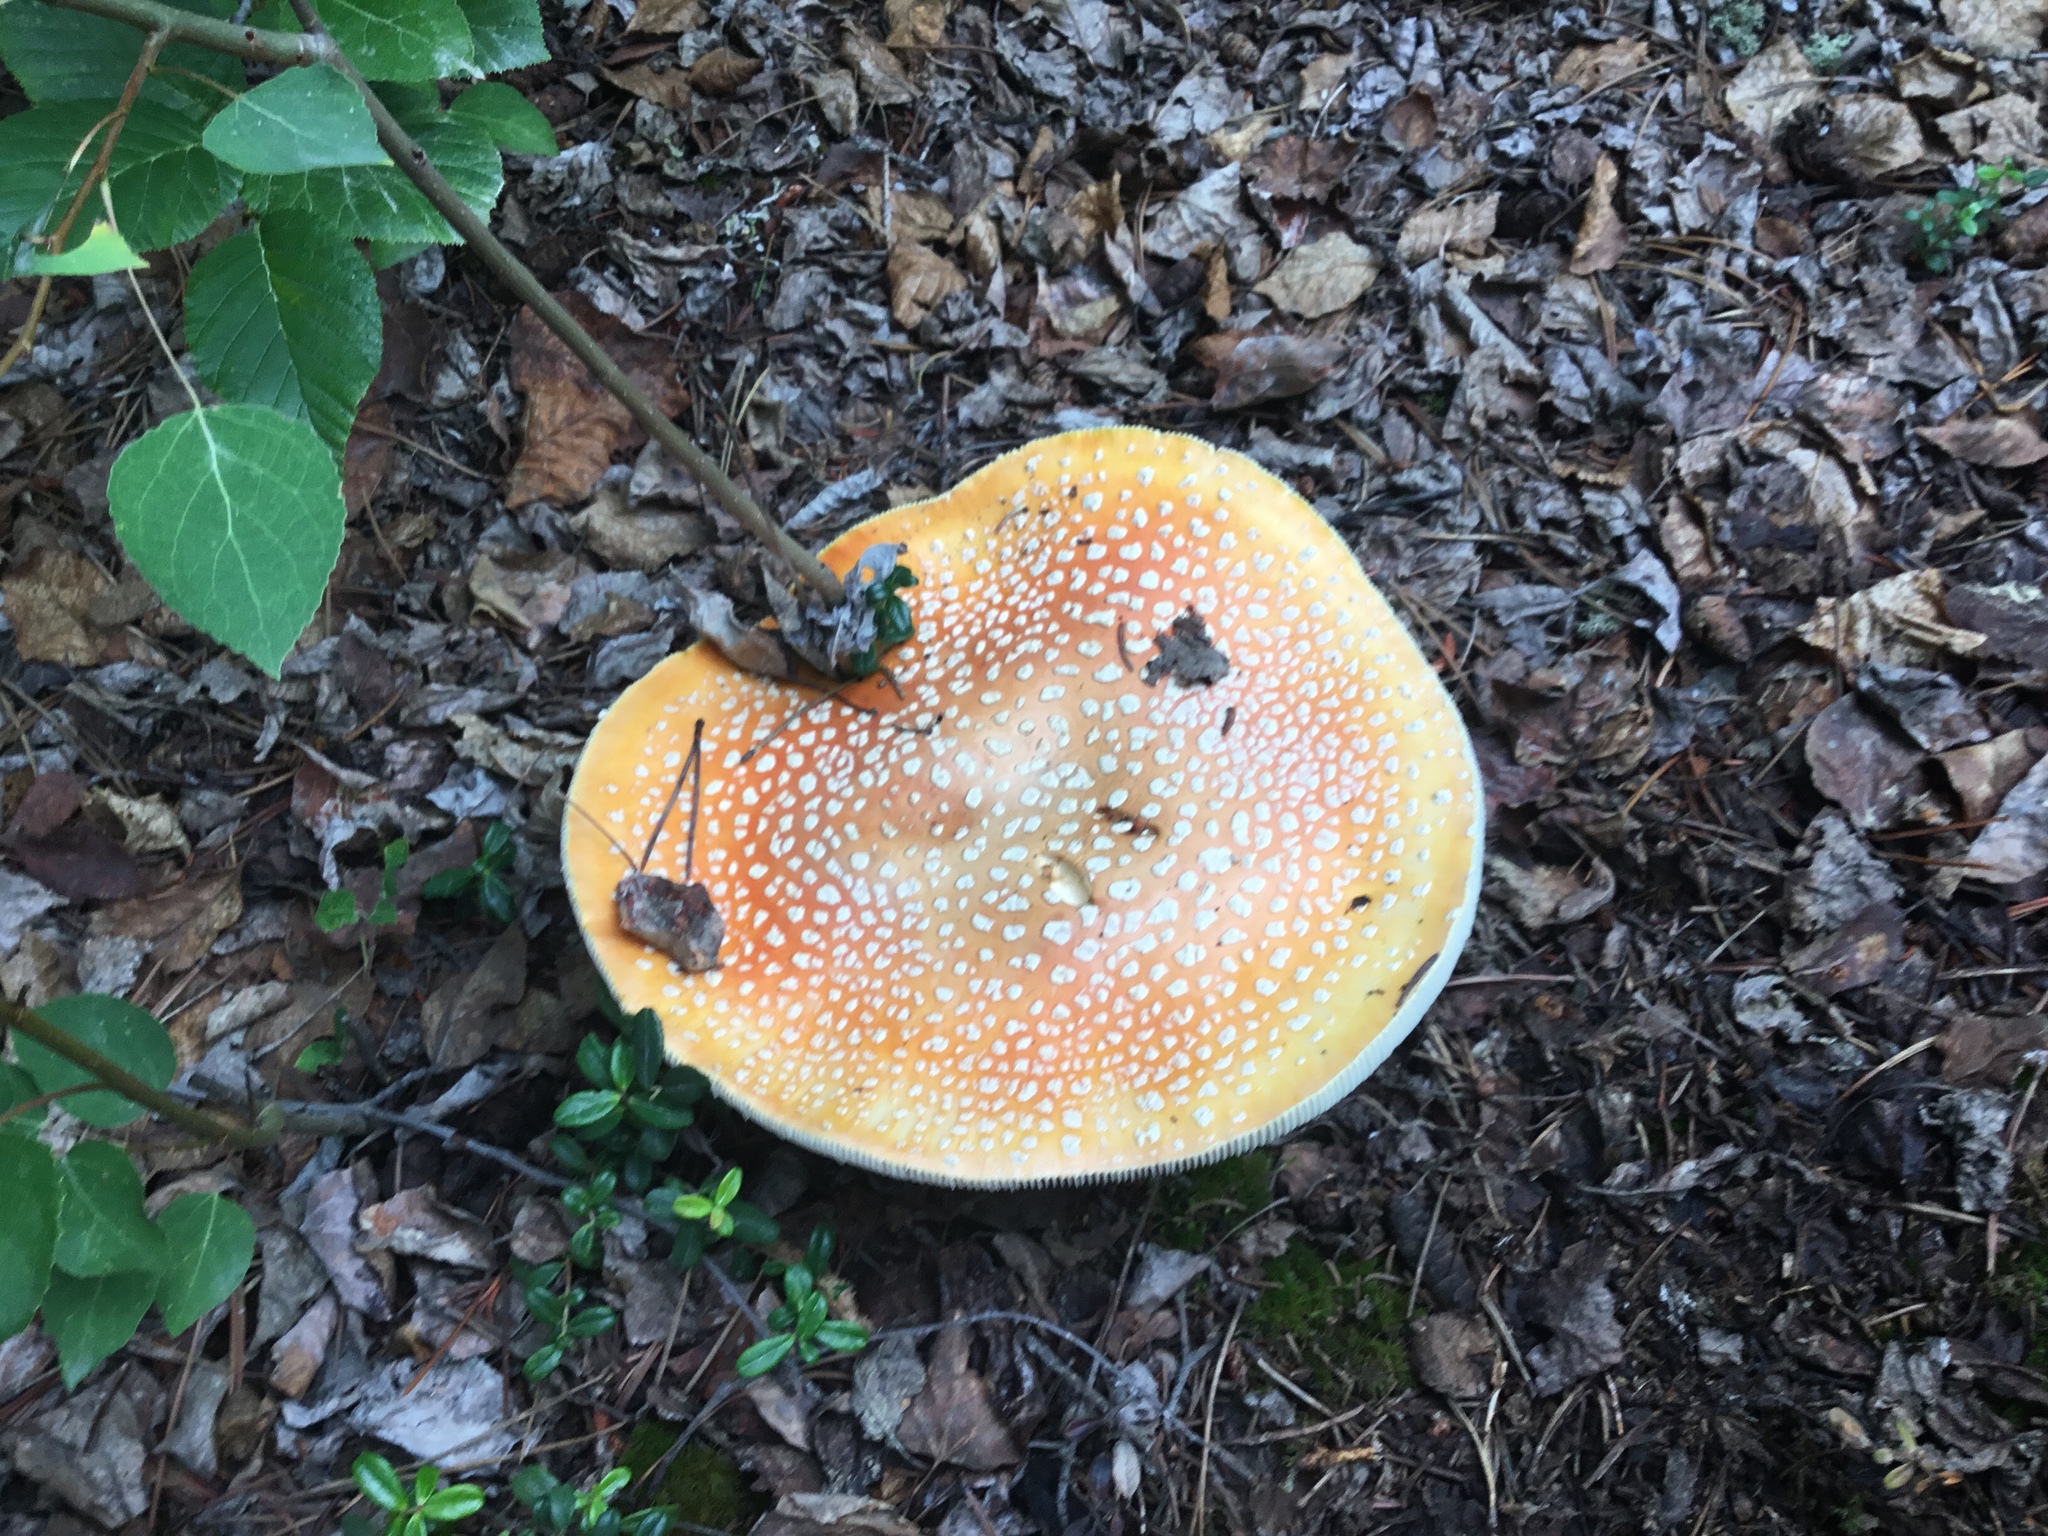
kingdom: Fungi
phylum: Basidiomycota
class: Agaricomycetes
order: Agaricales
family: Amanitaceae
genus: Amanita
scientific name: Amanita muscaria
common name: Fly agaric
